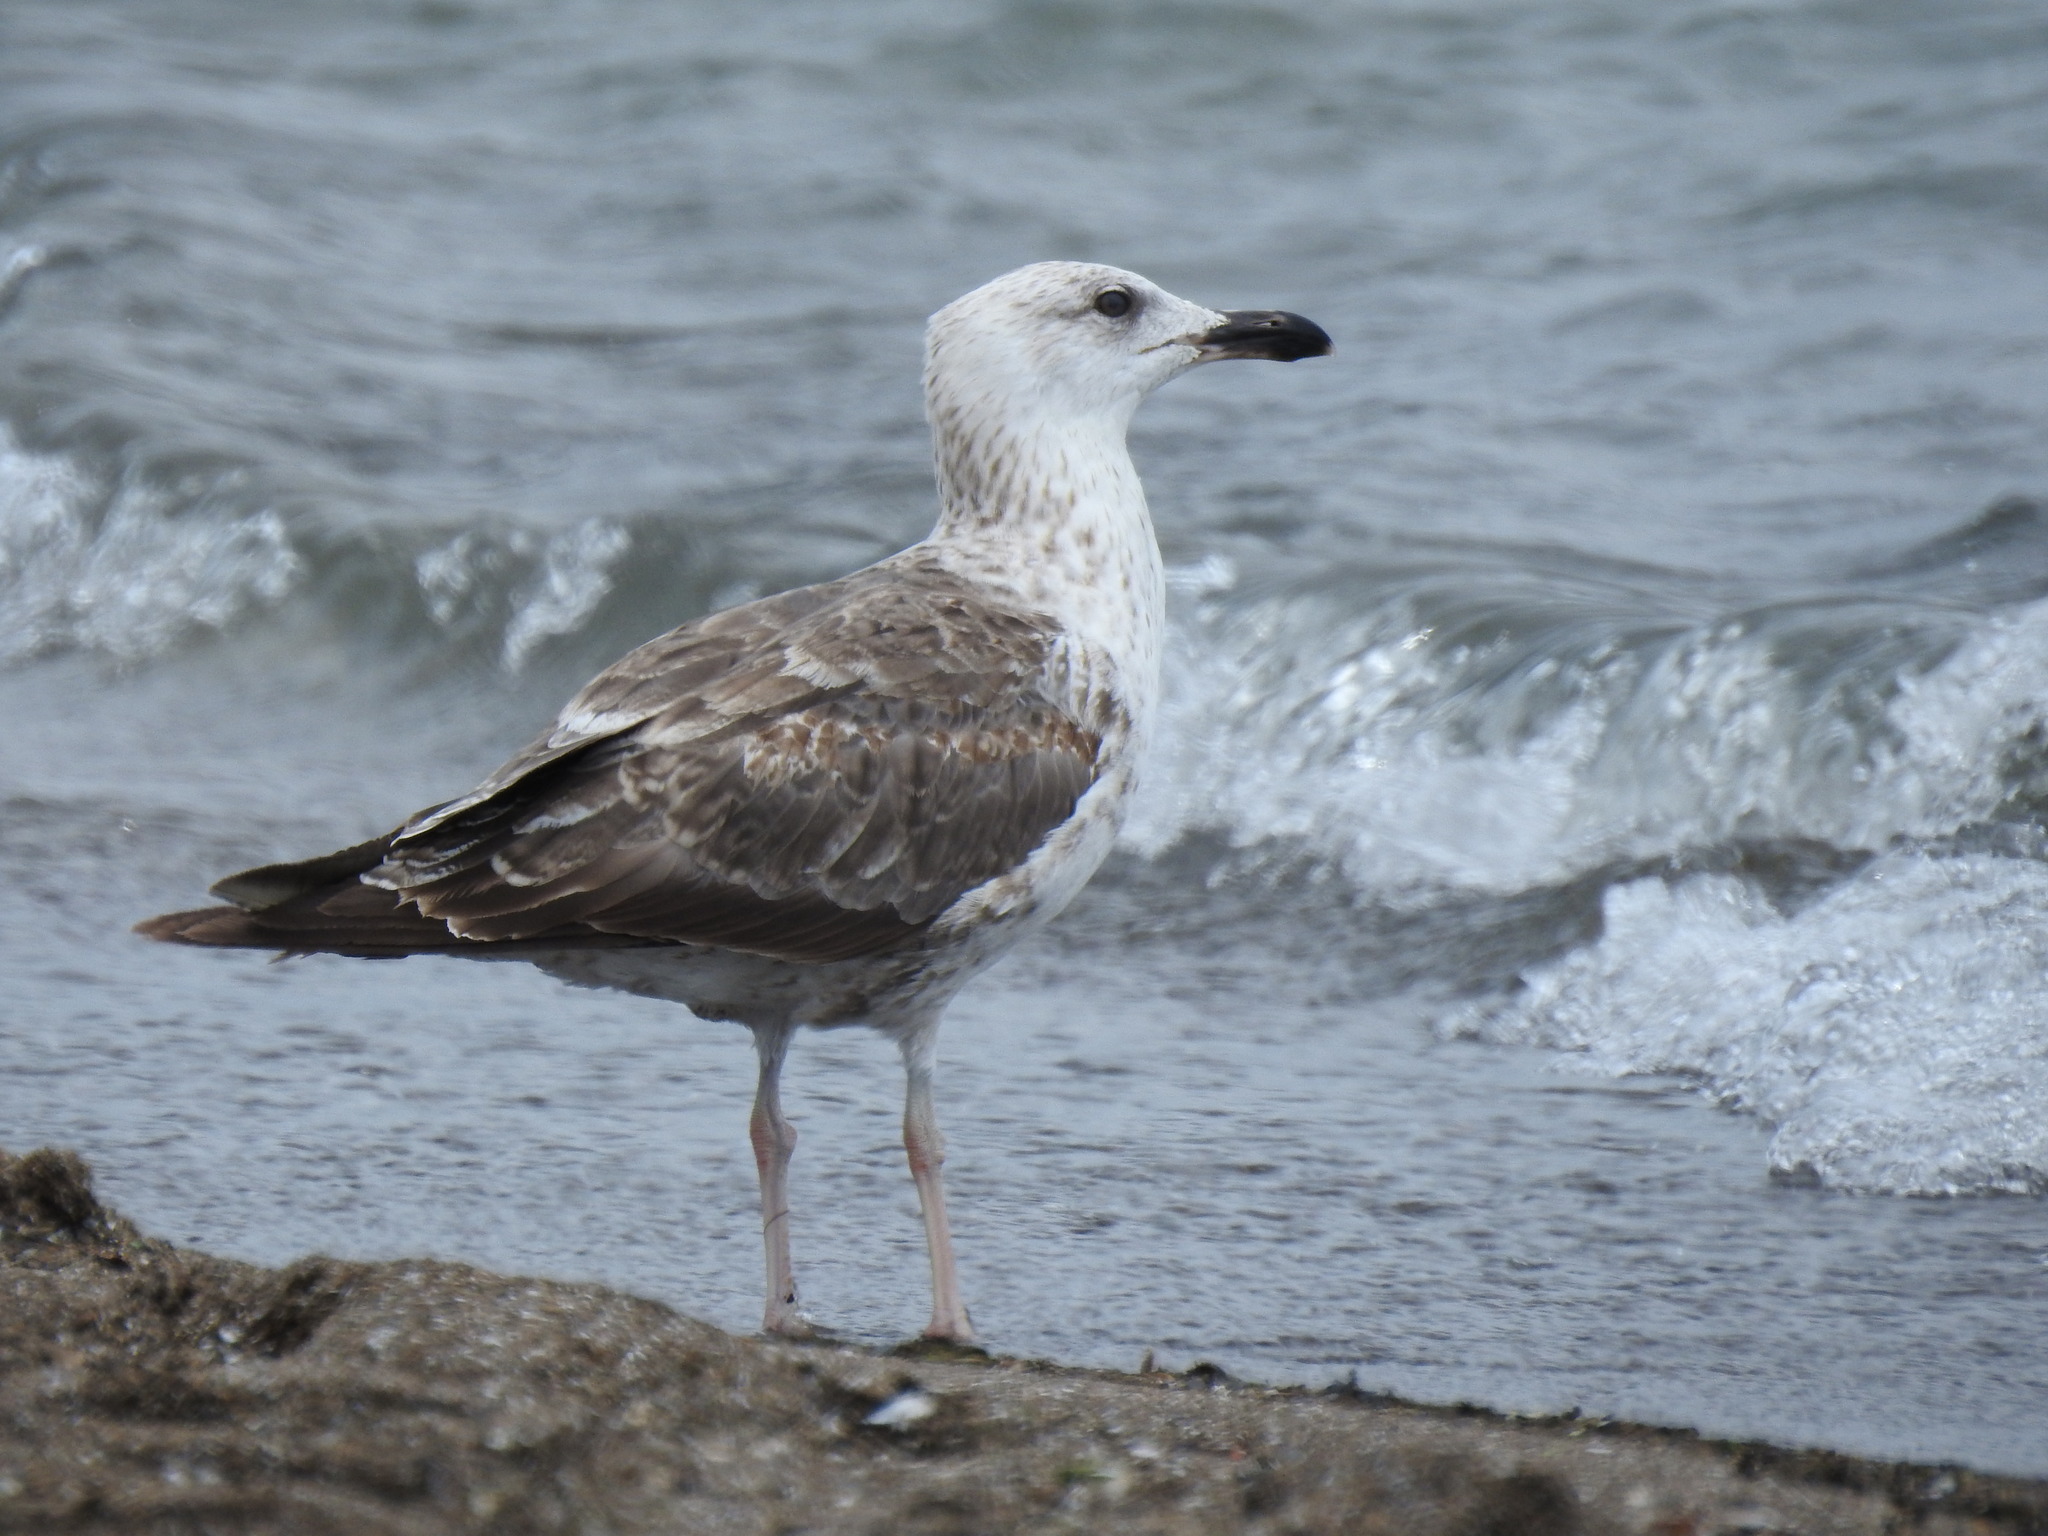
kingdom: Animalia
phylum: Chordata
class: Aves
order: Charadriiformes
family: Laridae
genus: Larus
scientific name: Larus fuscus
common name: Lesser black-backed gull
